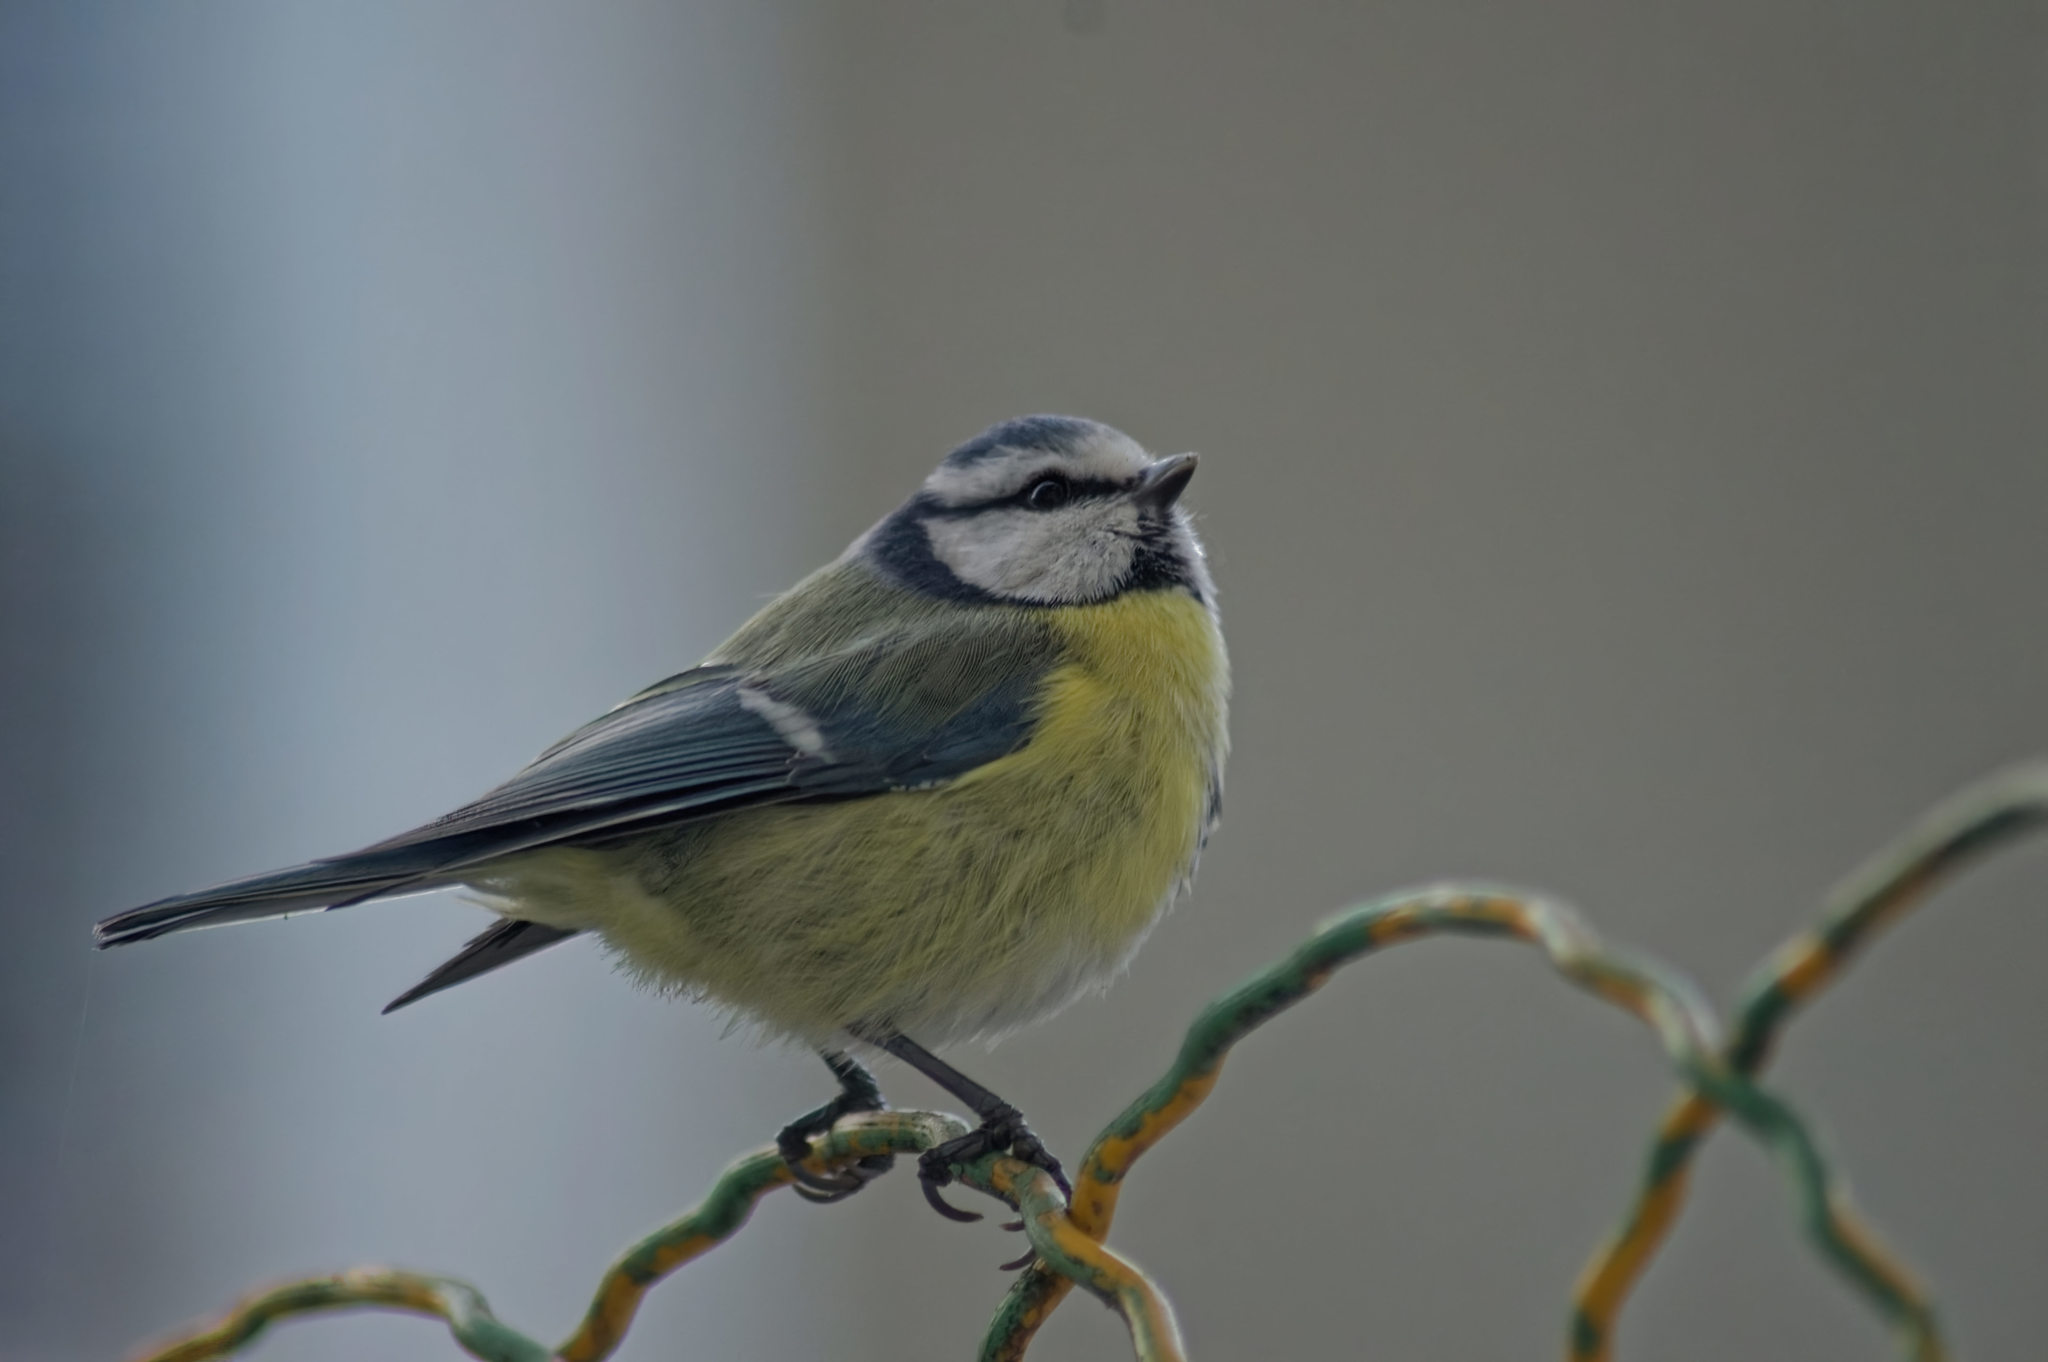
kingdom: Animalia
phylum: Chordata
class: Aves
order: Passeriformes
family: Paridae
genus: Cyanistes
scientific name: Cyanistes caeruleus
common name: Eurasian blue tit
